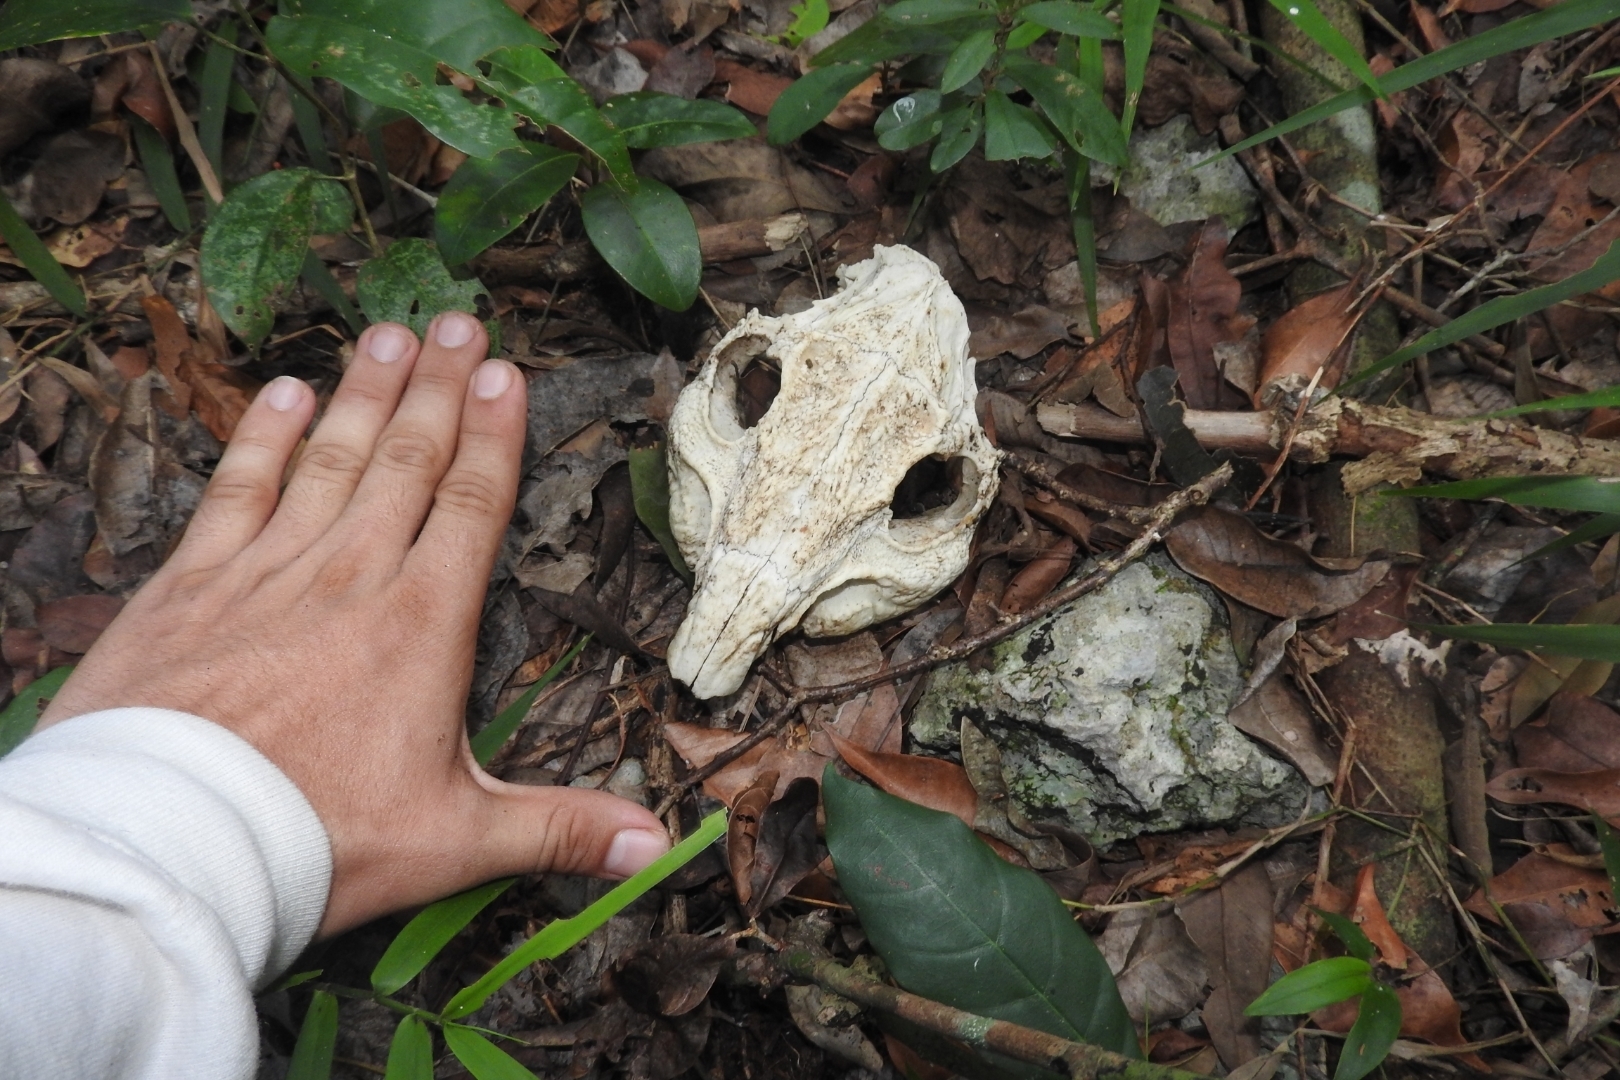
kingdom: Animalia
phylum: Chordata
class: Mammalia
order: Rodentia
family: Cuniculidae
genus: Cuniculus
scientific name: Cuniculus paca
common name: Lowland paca
